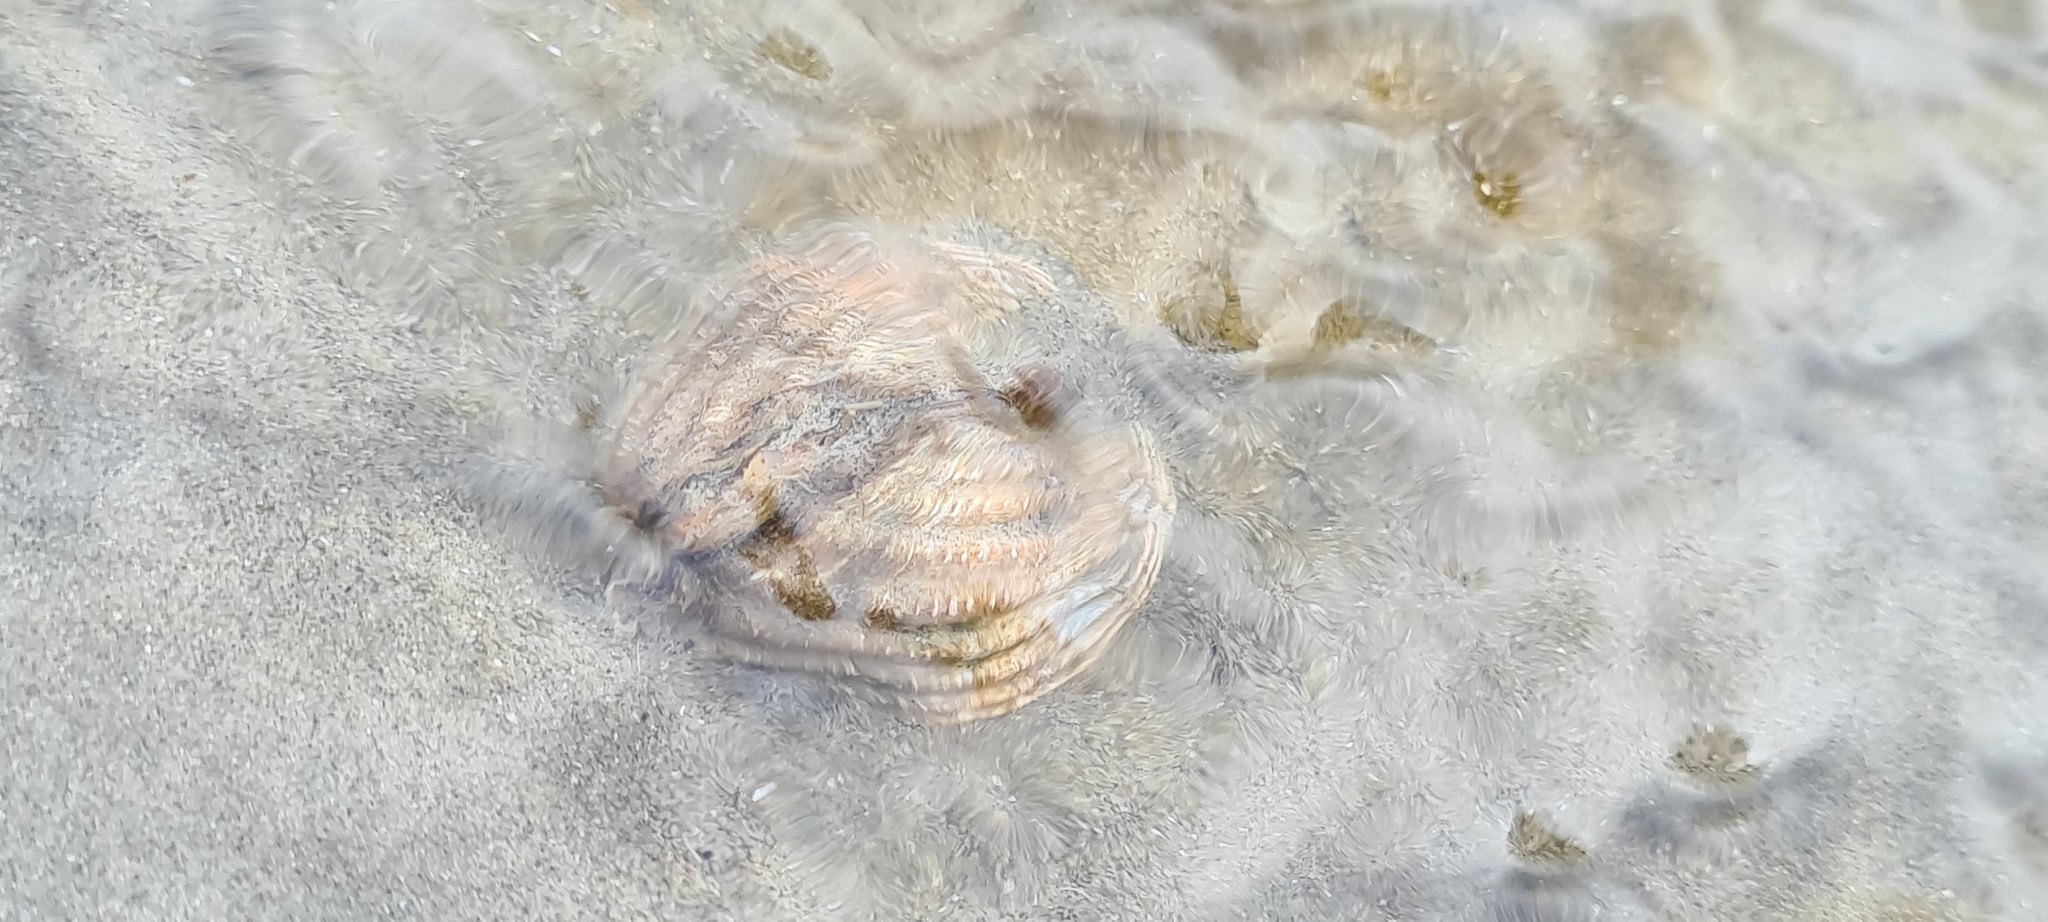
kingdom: Animalia
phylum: Mollusca
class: Bivalvia
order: Cardiida
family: Cardiidae
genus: Cerastoderma
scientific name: Cerastoderma edule
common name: Common cockle
